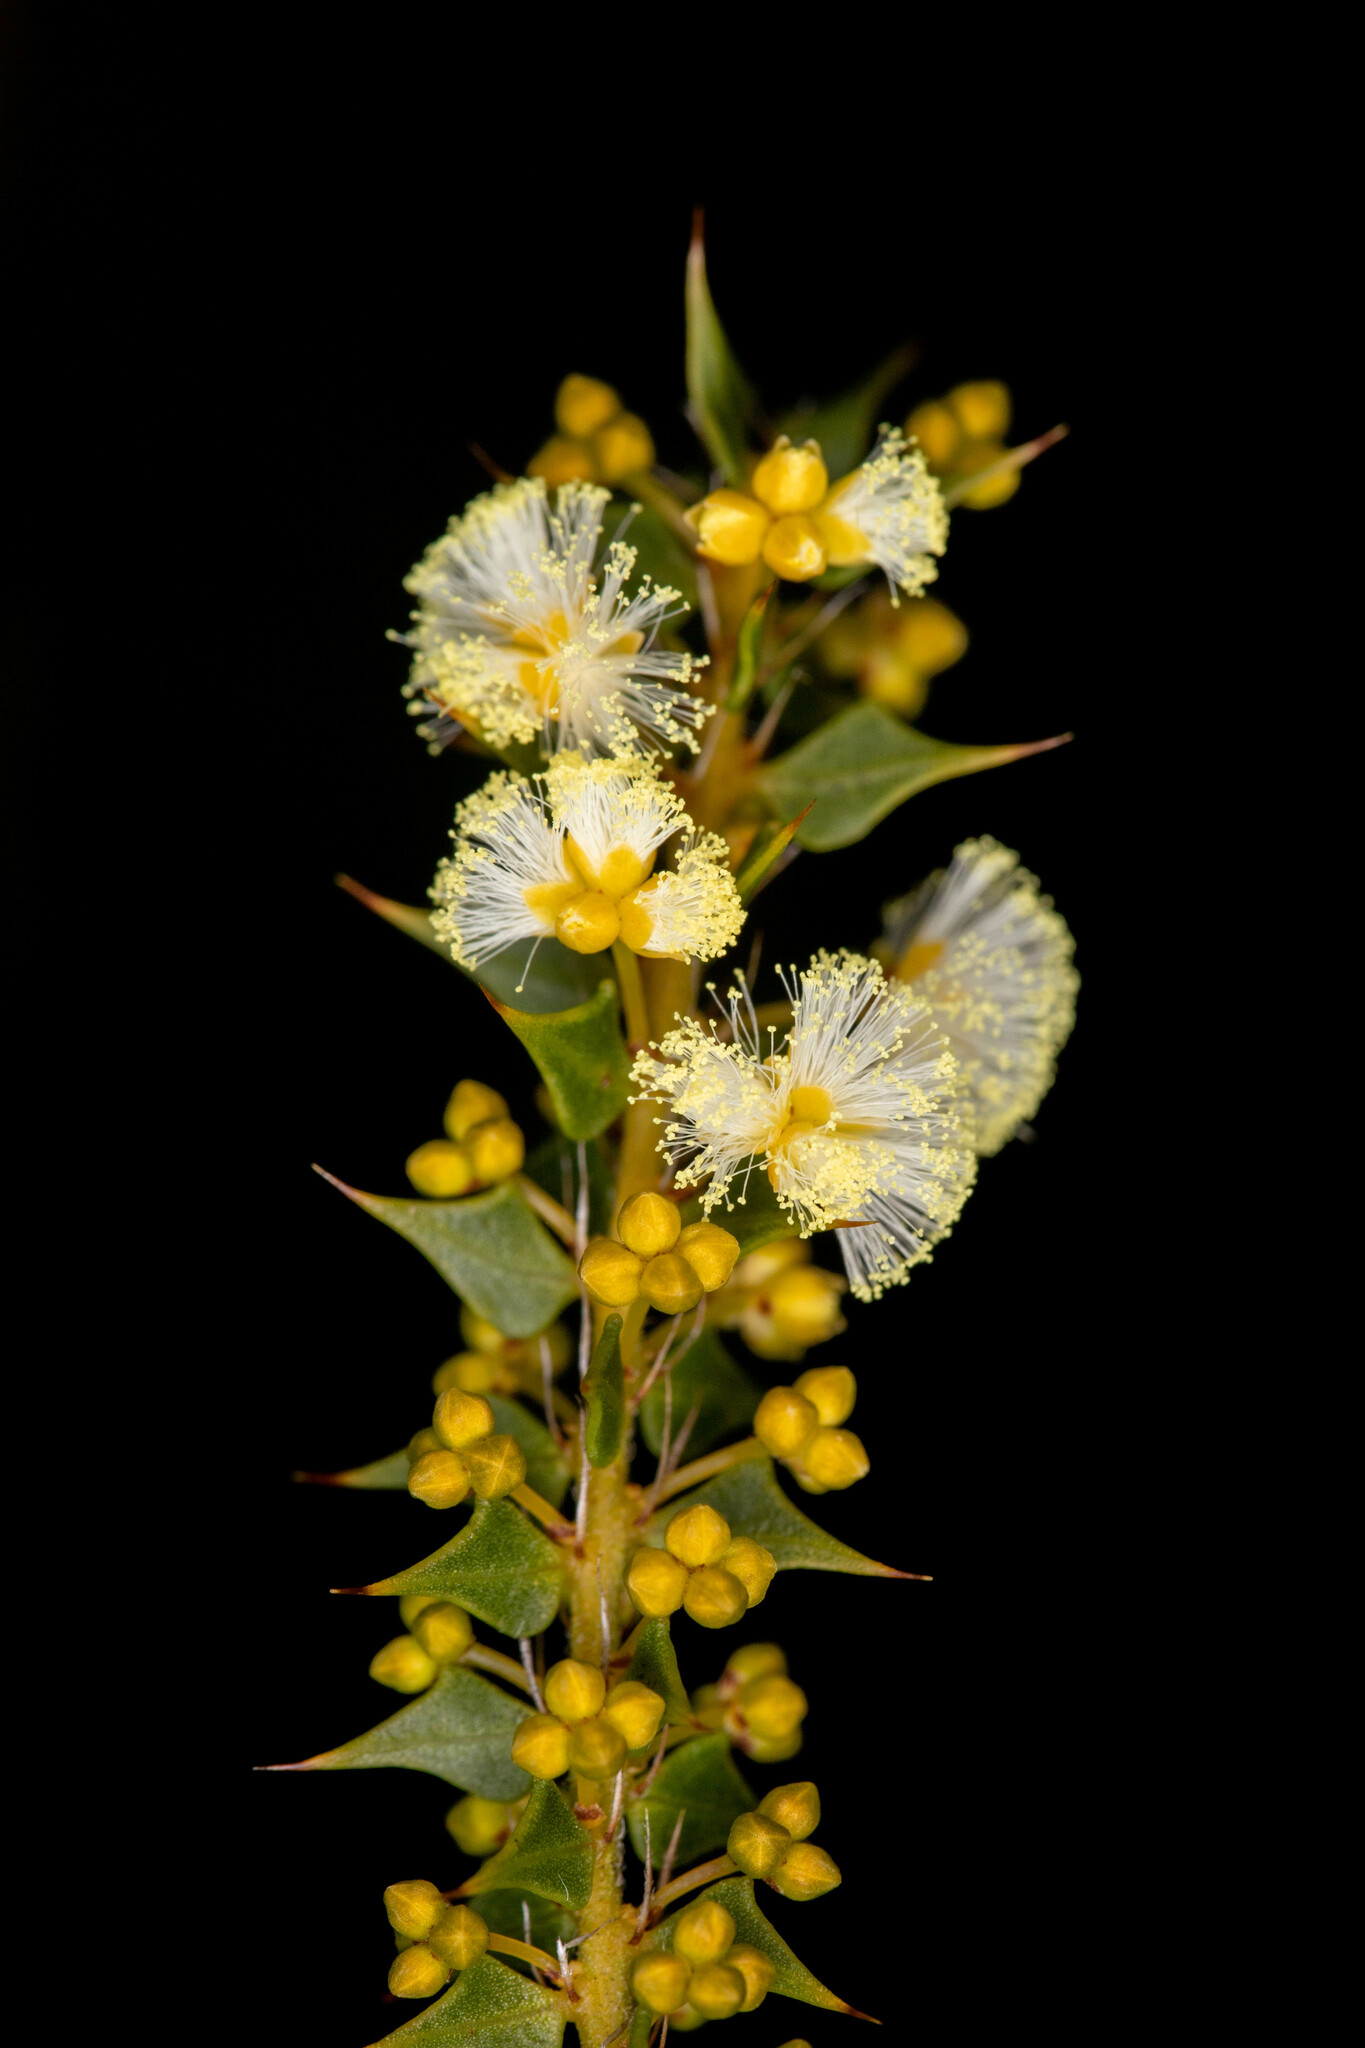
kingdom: Plantae
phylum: Tracheophyta
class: Magnoliopsida
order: Fabales
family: Fabaceae
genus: Acacia
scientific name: Acacia hastulata
